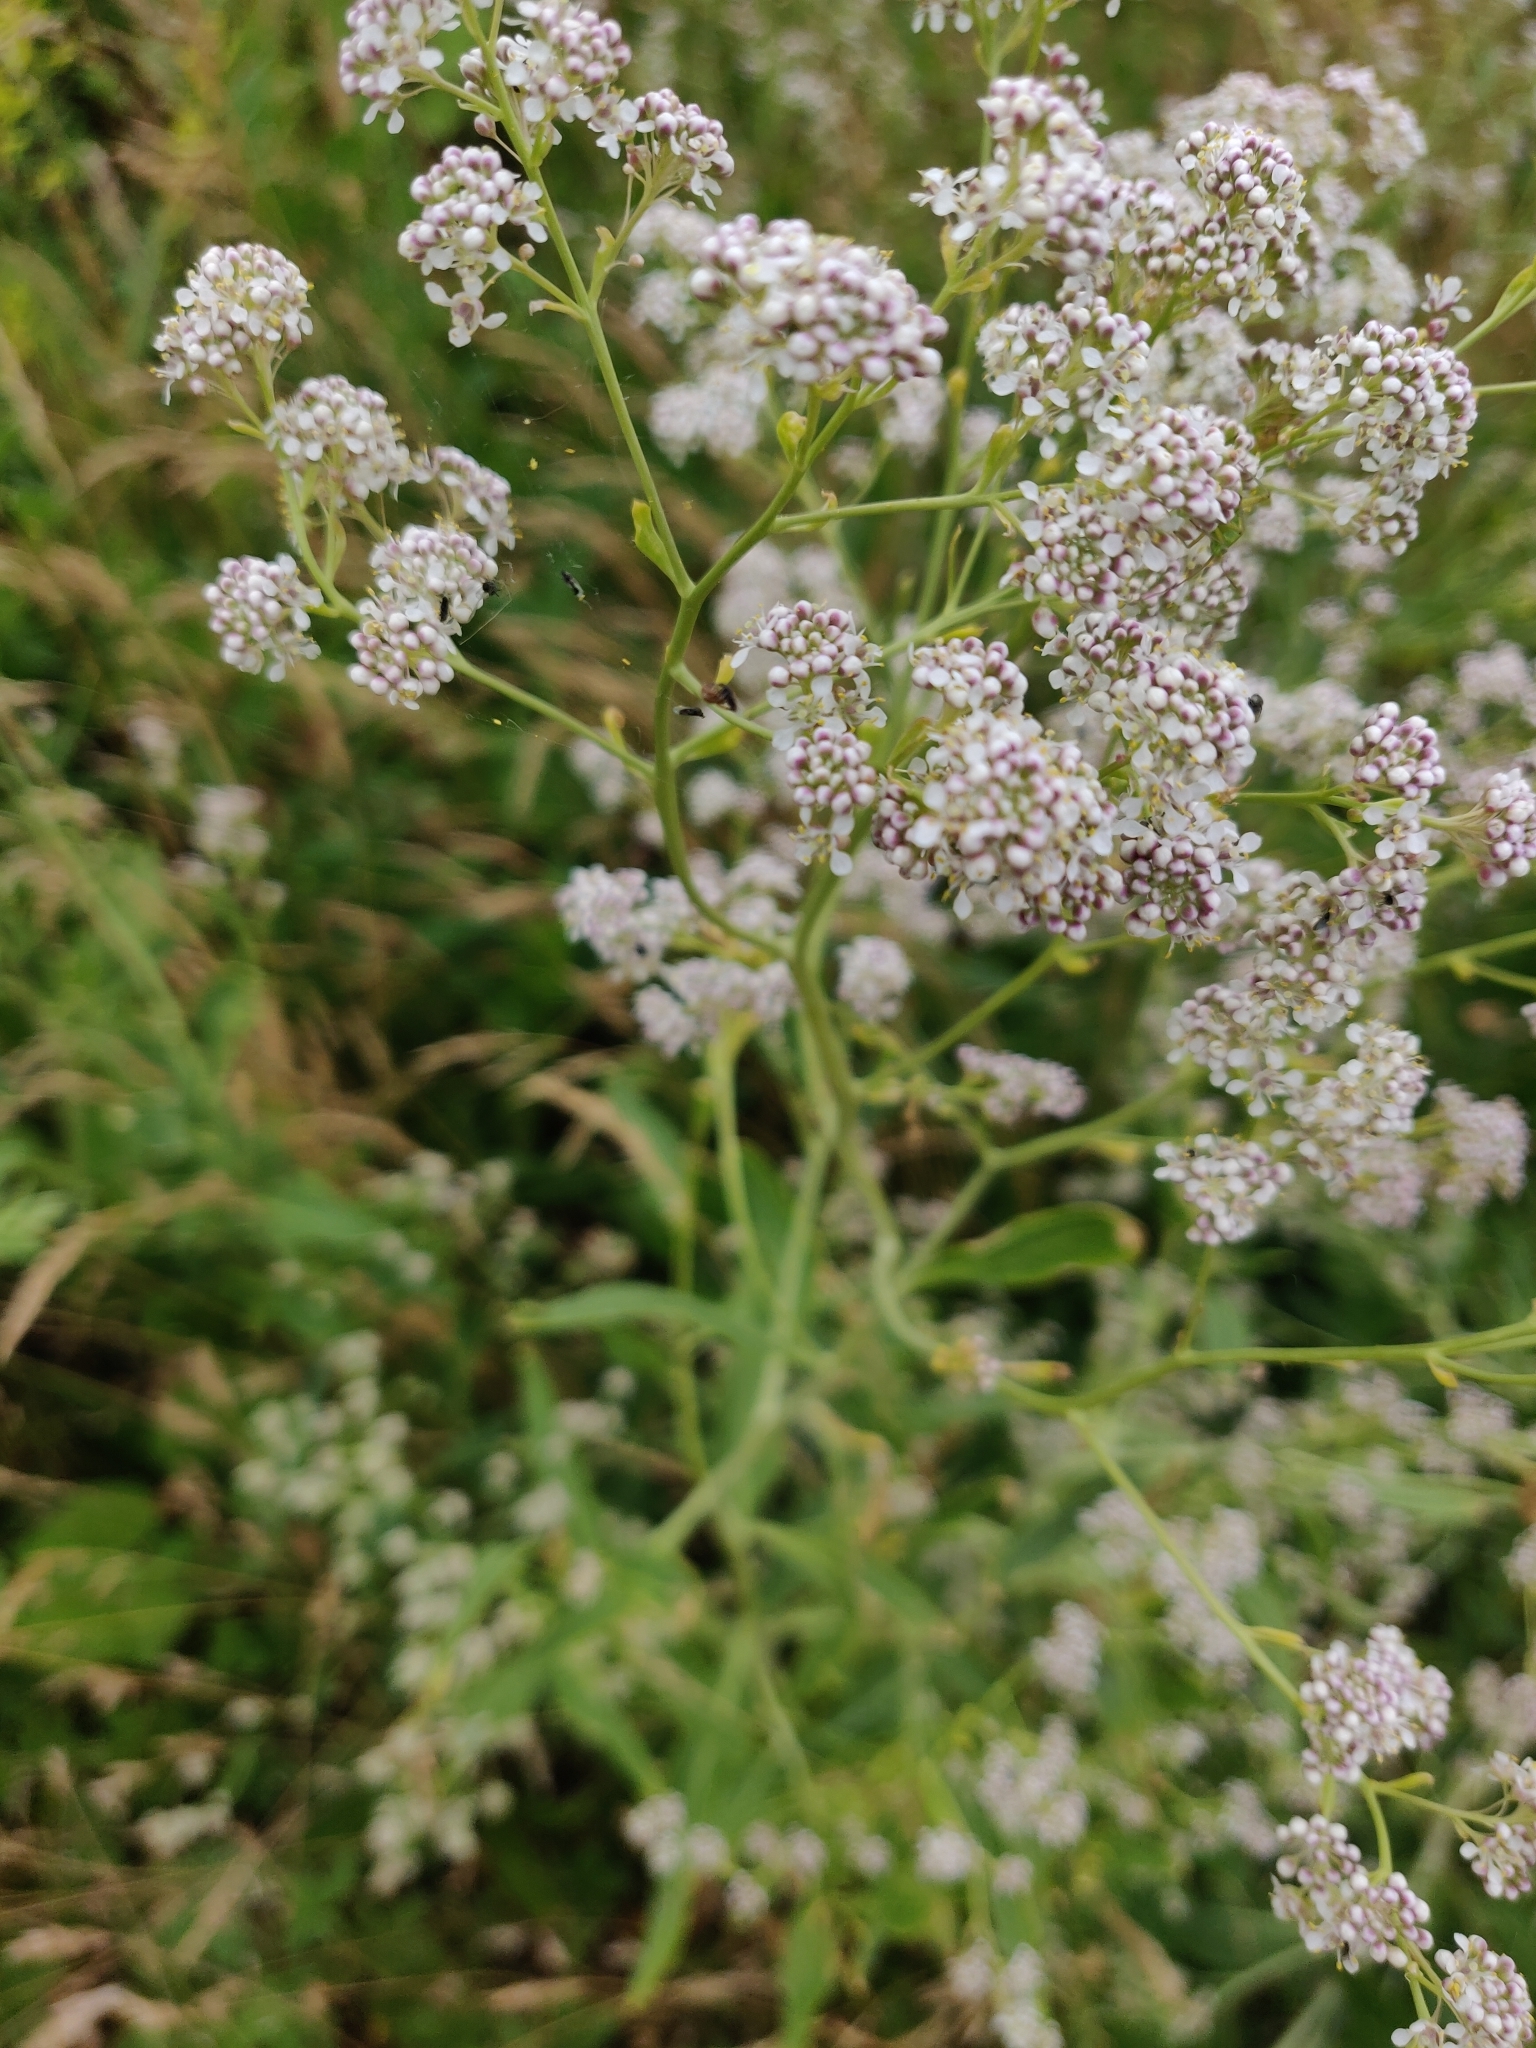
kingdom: Plantae
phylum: Tracheophyta
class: Magnoliopsida
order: Brassicales
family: Brassicaceae
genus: Lepidium
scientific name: Lepidium latifolium
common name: Dittander
